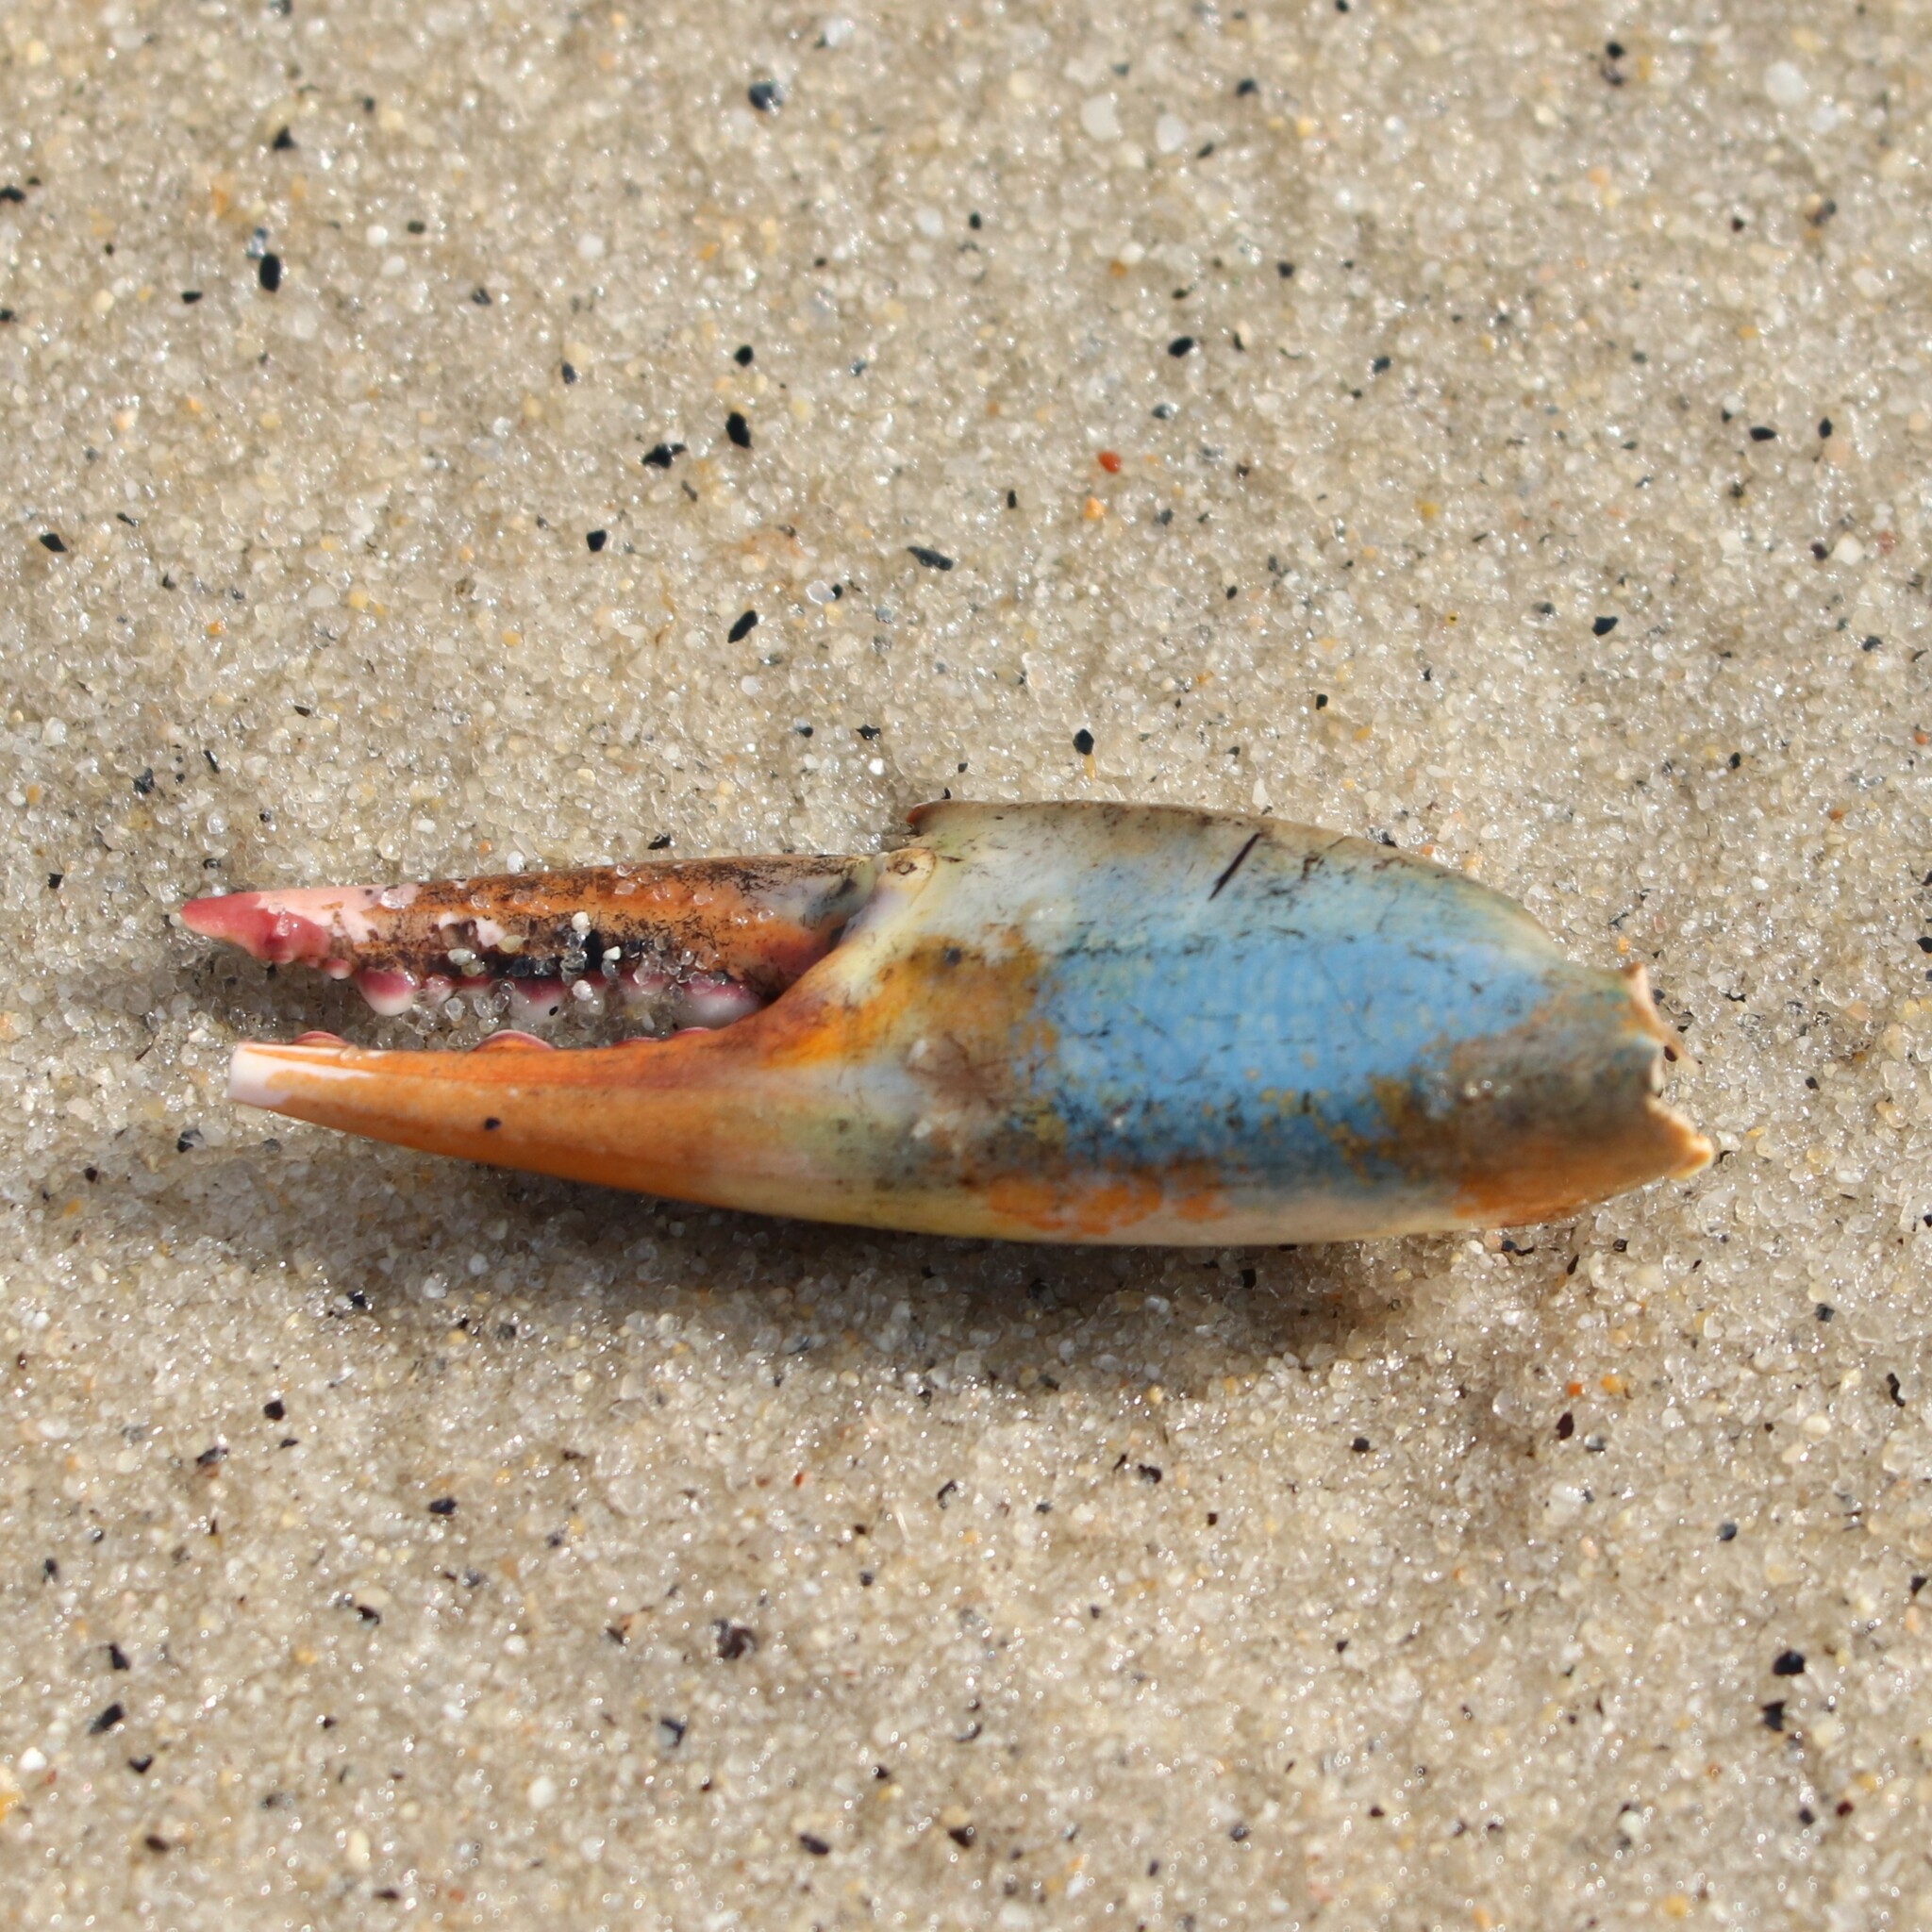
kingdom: Animalia
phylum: Arthropoda
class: Malacostraca
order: Decapoda
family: Portunidae
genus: Callinectes
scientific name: Callinectes sapidus
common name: Blue crab
